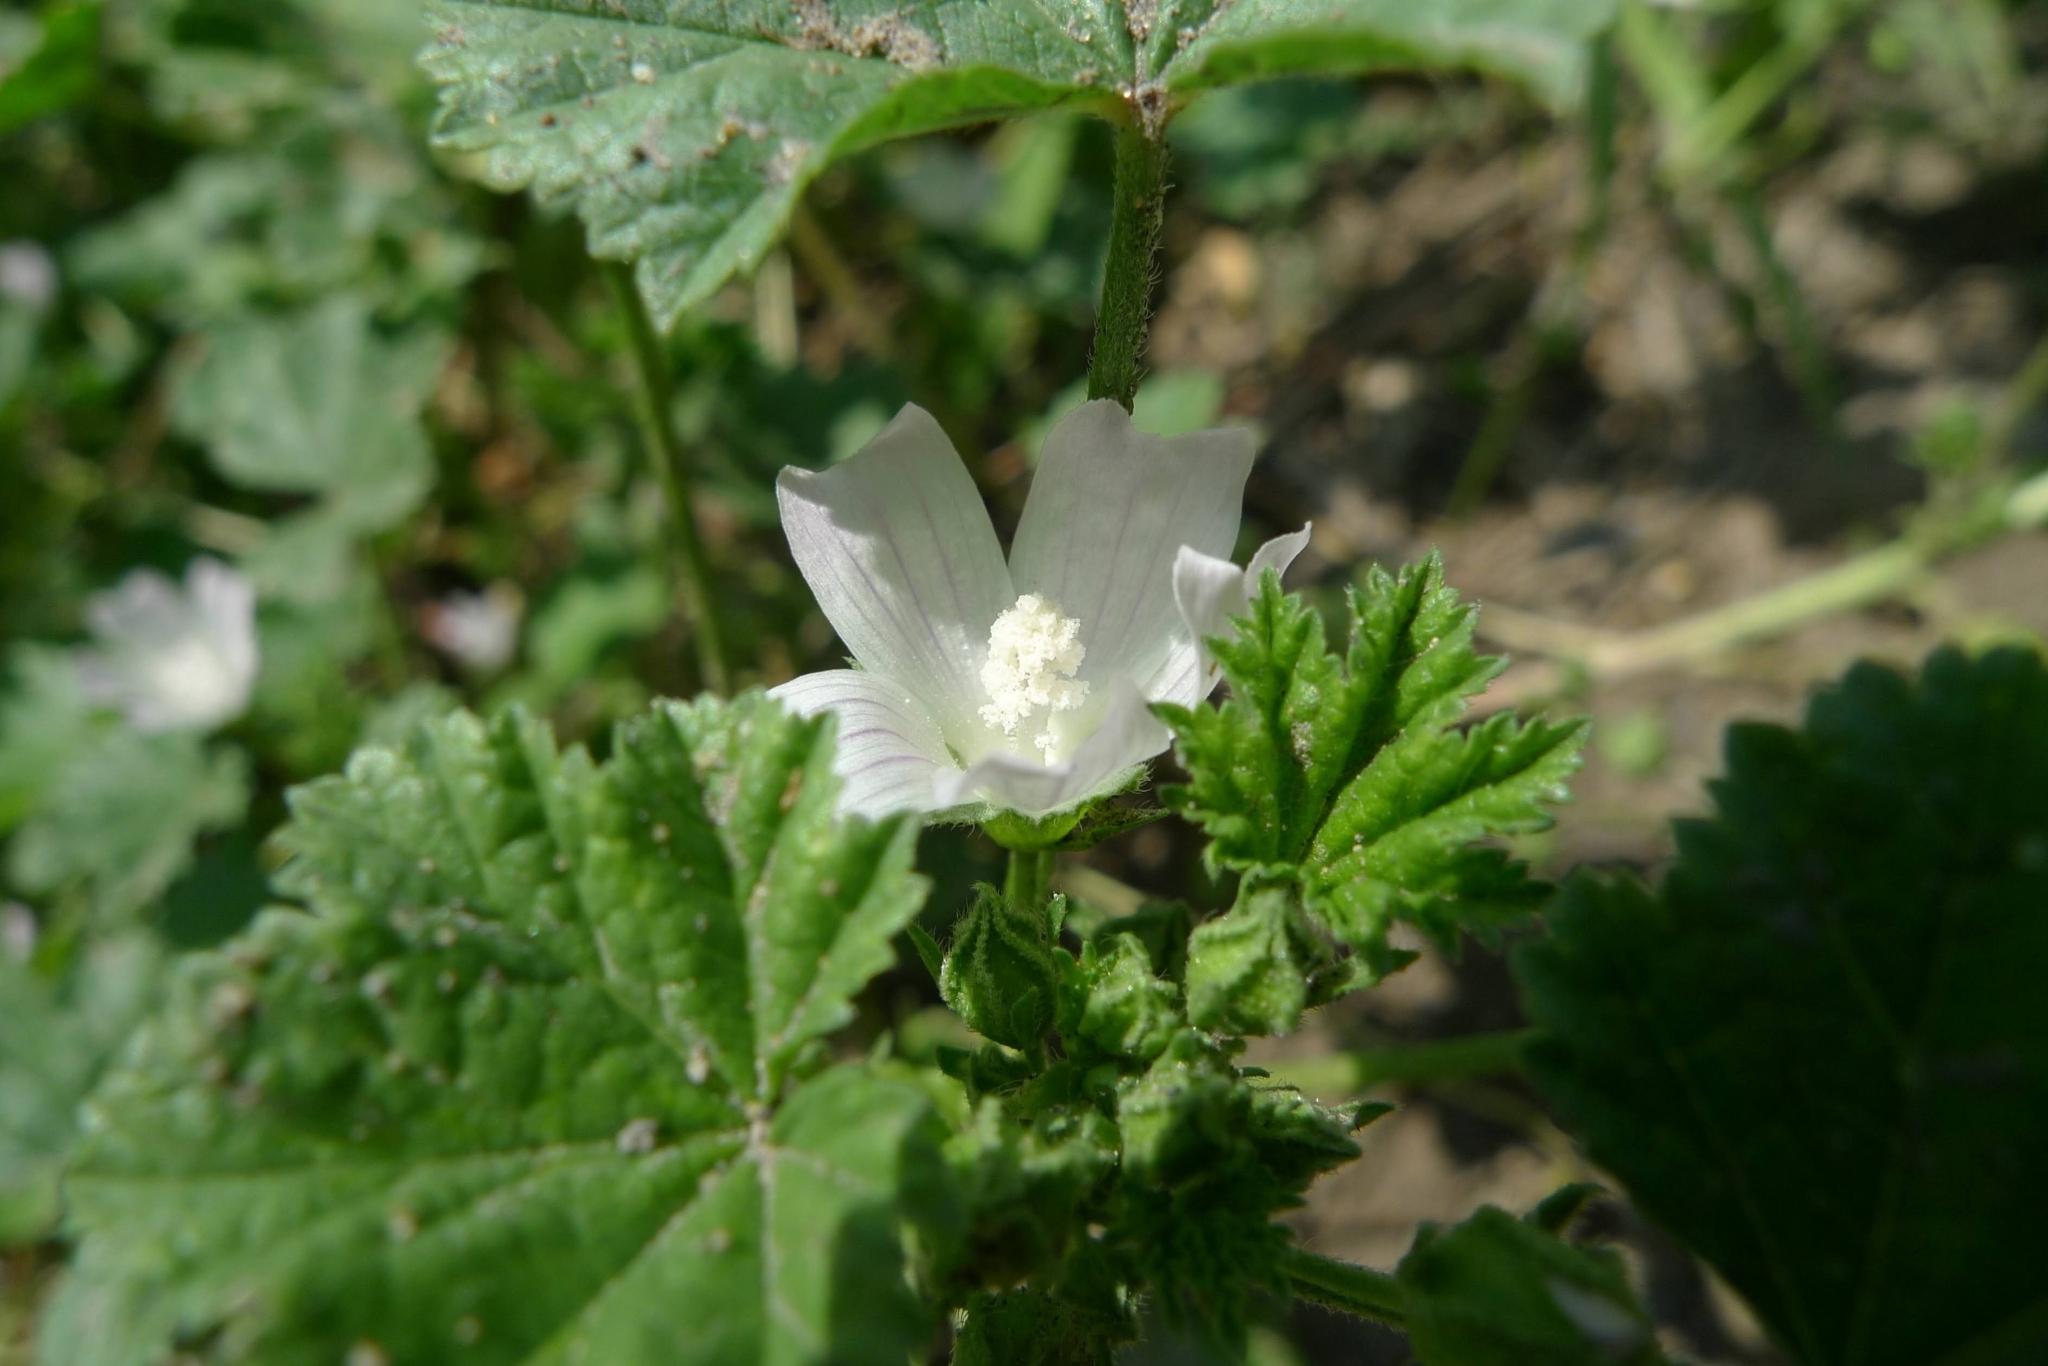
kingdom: Plantae
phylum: Tracheophyta
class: Magnoliopsida
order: Malvales
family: Malvaceae
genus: Malva
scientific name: Malva neglecta
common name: Common mallow
